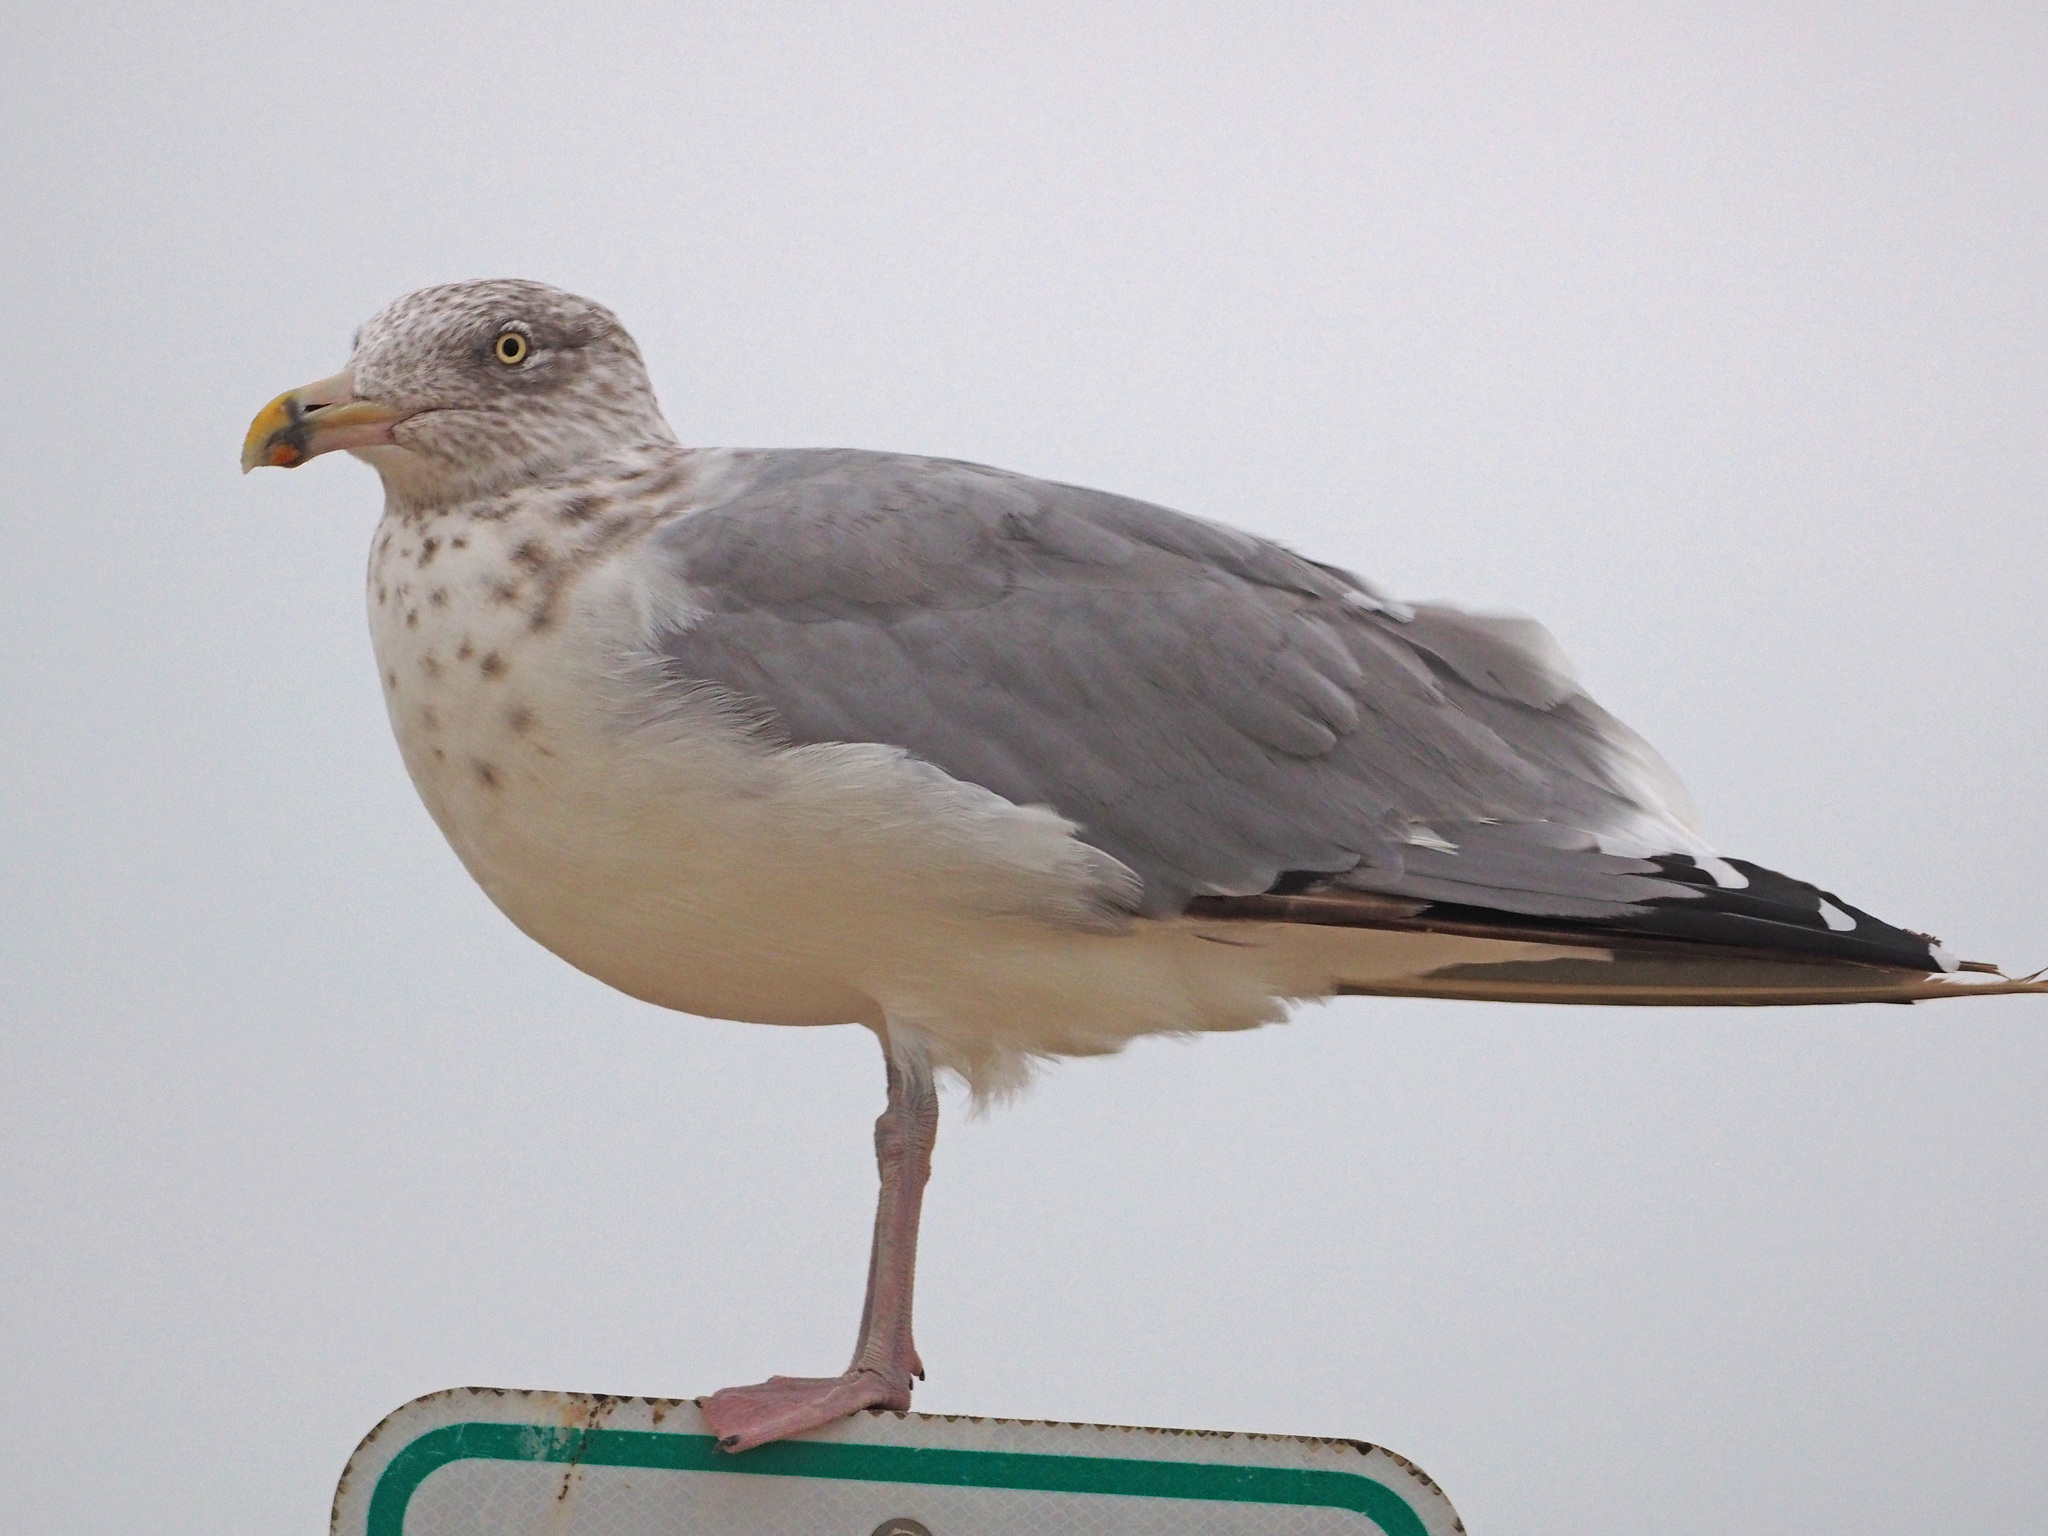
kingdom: Animalia
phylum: Chordata
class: Aves
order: Charadriiformes
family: Laridae
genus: Larus
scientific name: Larus argentatus
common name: Herring gull
